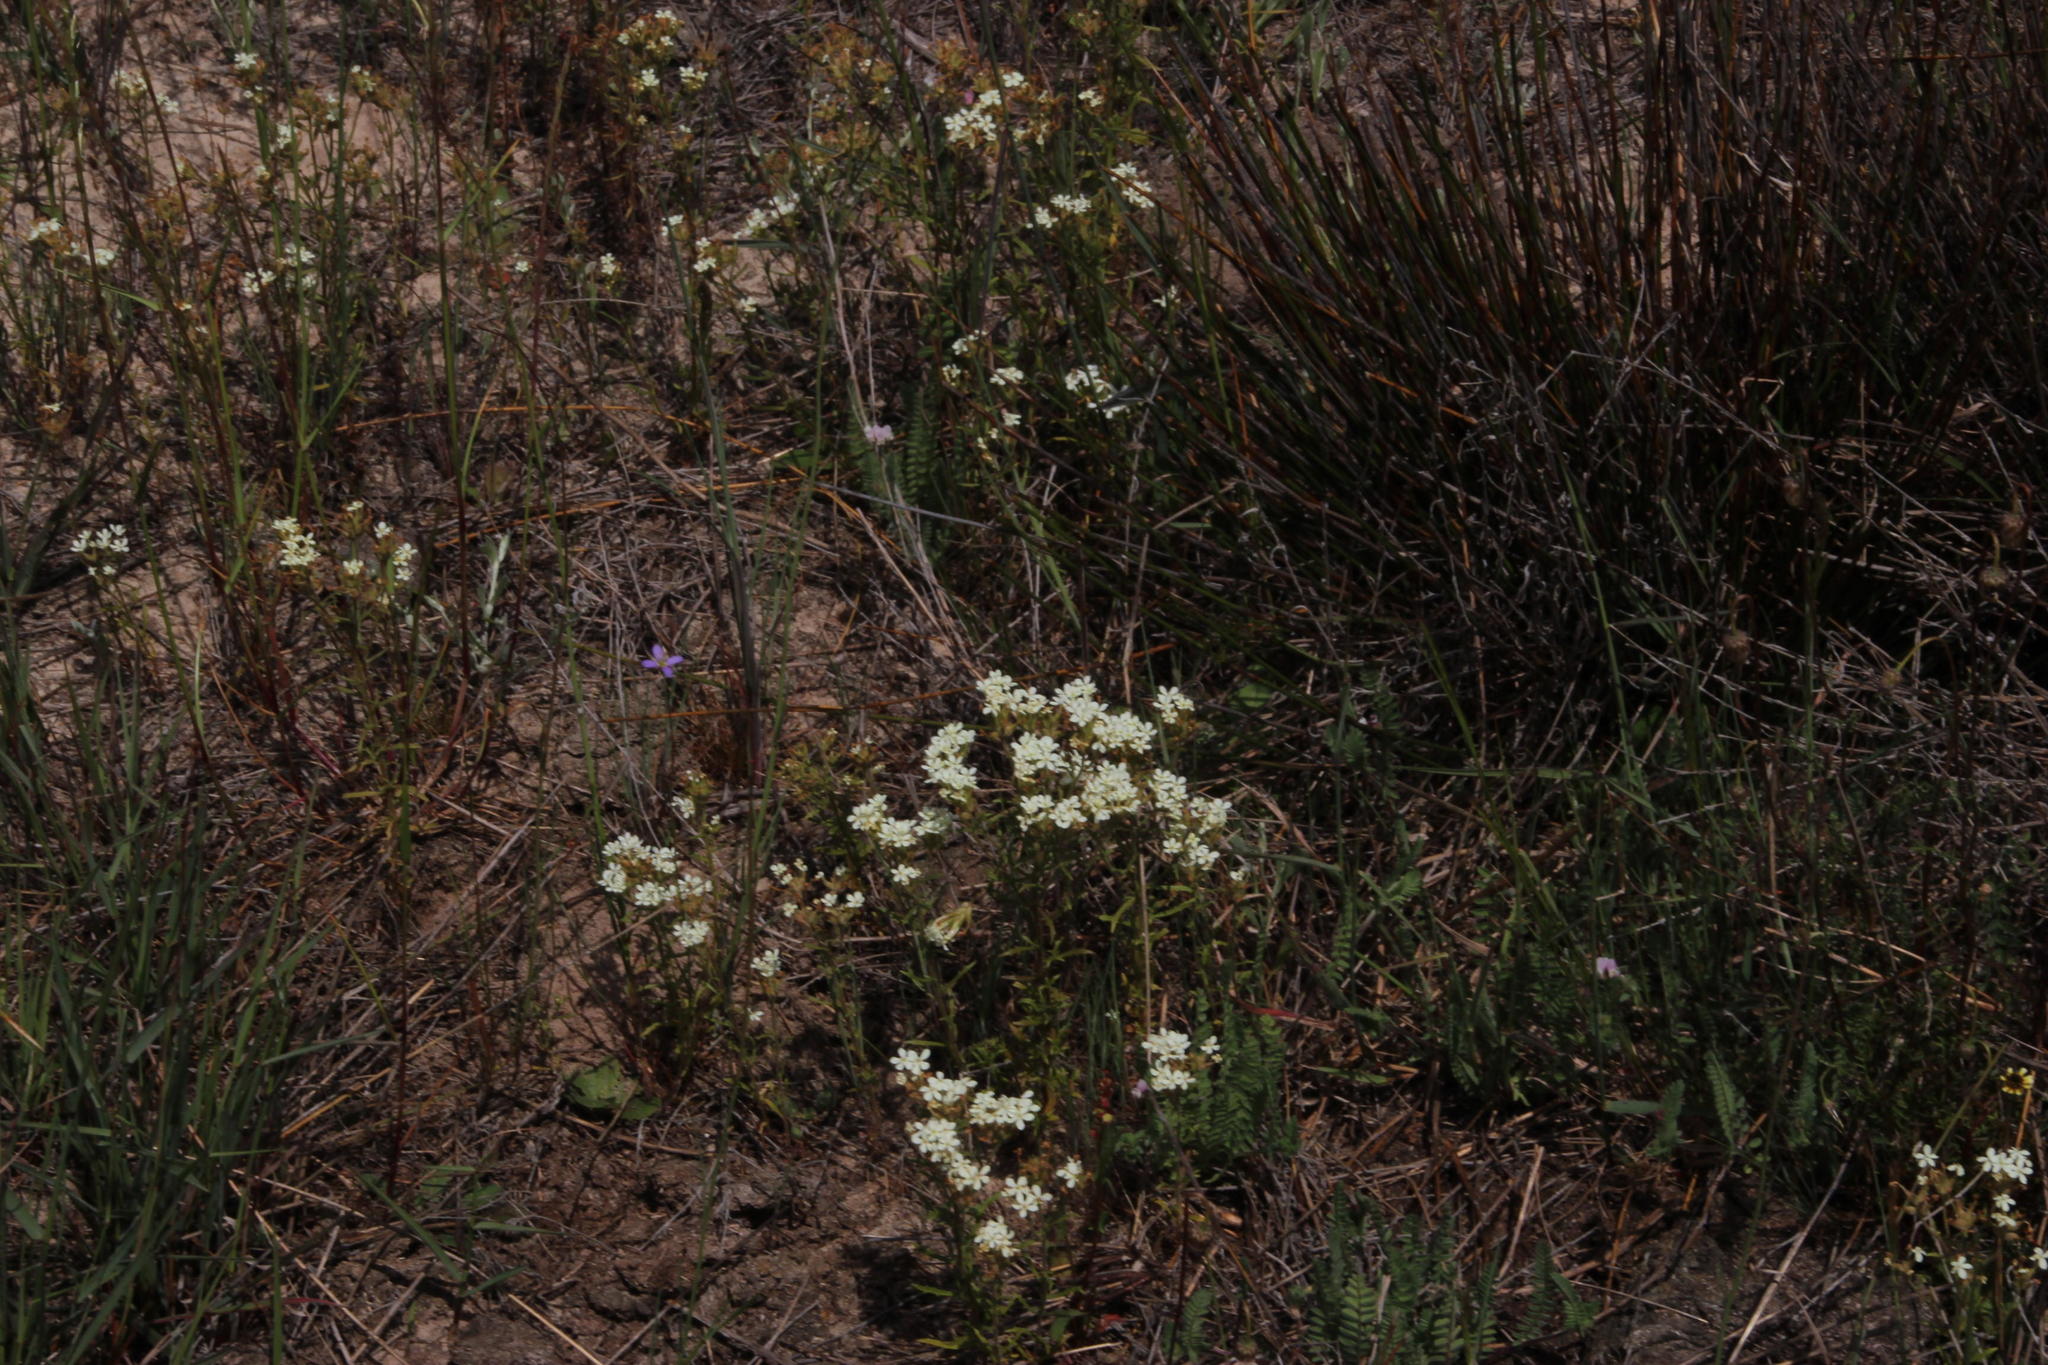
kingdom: Plantae
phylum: Tracheophyta
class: Magnoliopsida
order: Lamiales
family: Scrophulariaceae
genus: Polycarena
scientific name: Polycarena capensis
